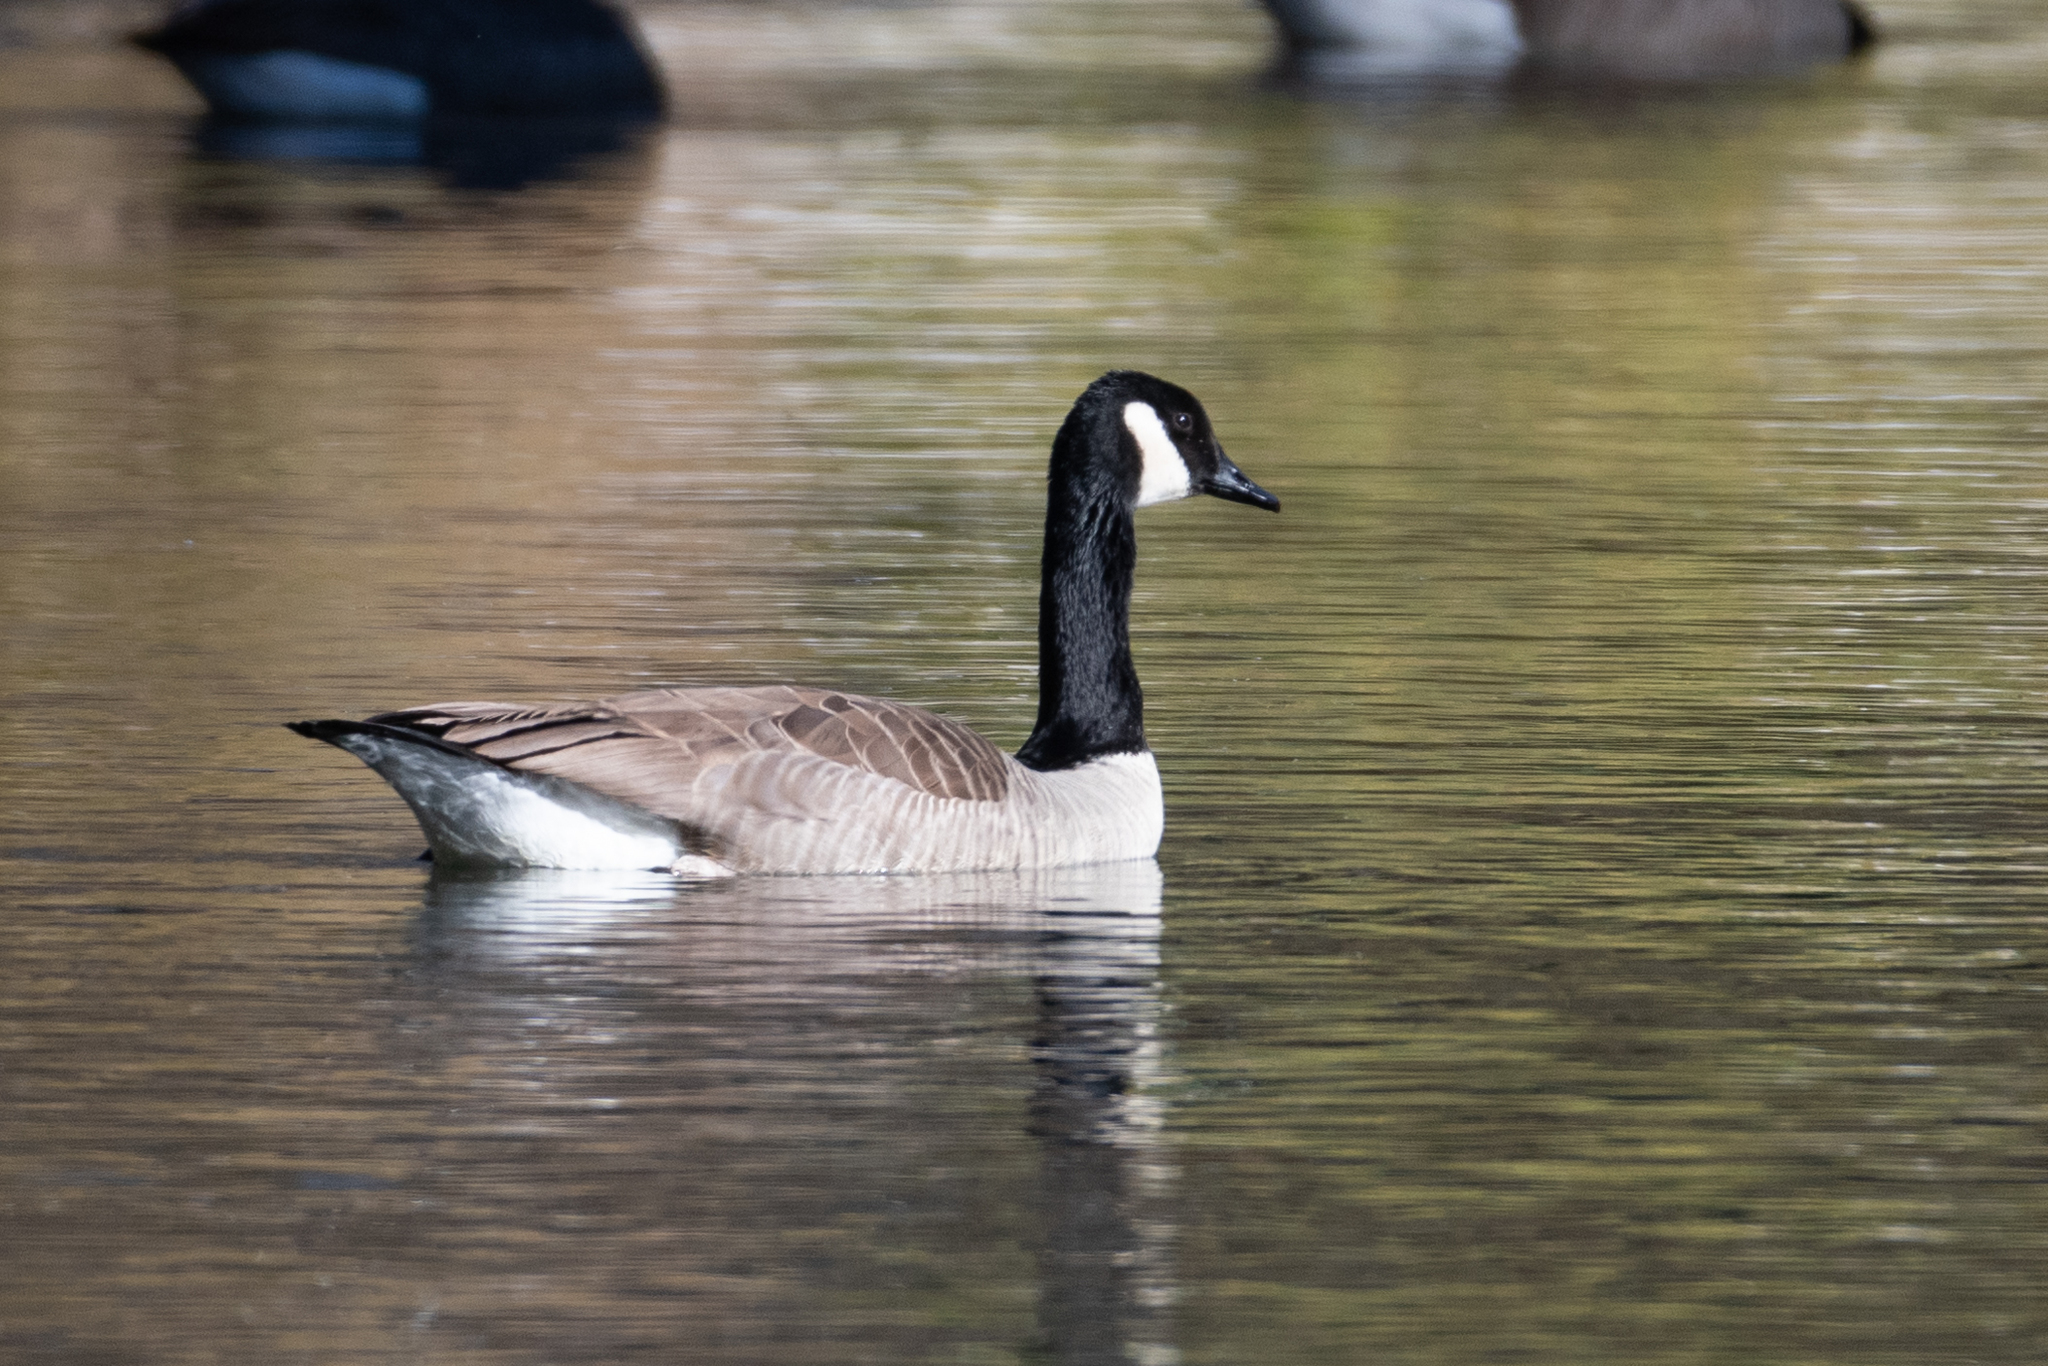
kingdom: Animalia
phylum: Chordata
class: Aves
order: Anseriformes
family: Anatidae
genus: Branta
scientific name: Branta canadensis
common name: Canada goose
